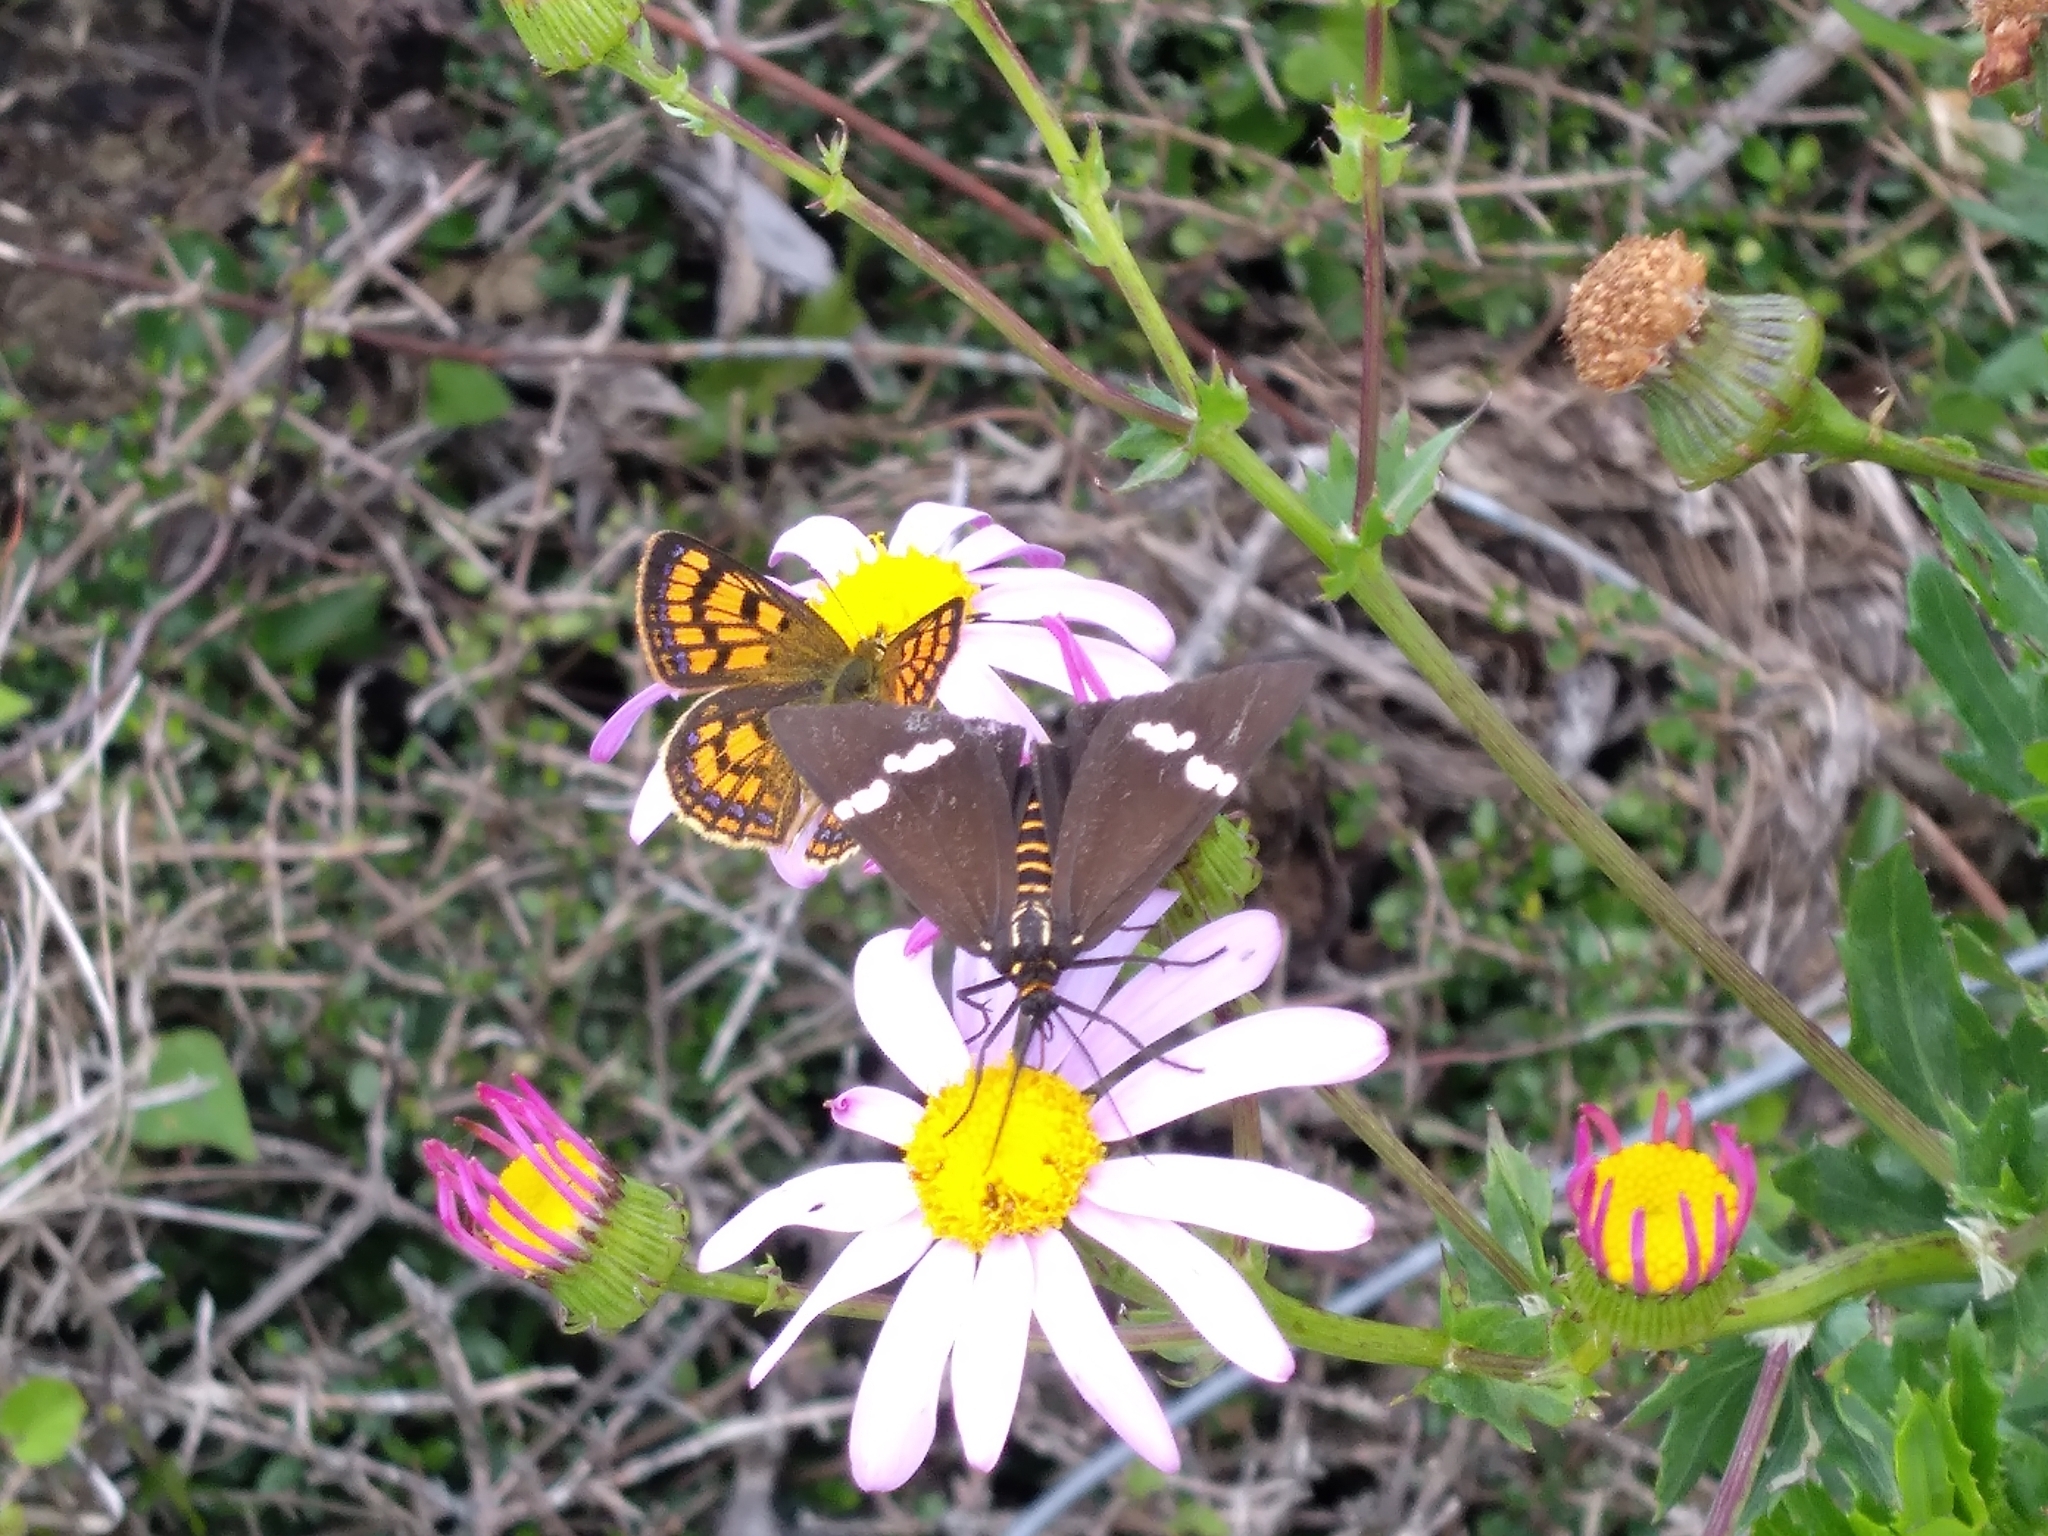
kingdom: Animalia
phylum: Arthropoda
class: Insecta
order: Lepidoptera
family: Erebidae
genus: Nyctemera
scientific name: Nyctemera annulatum
